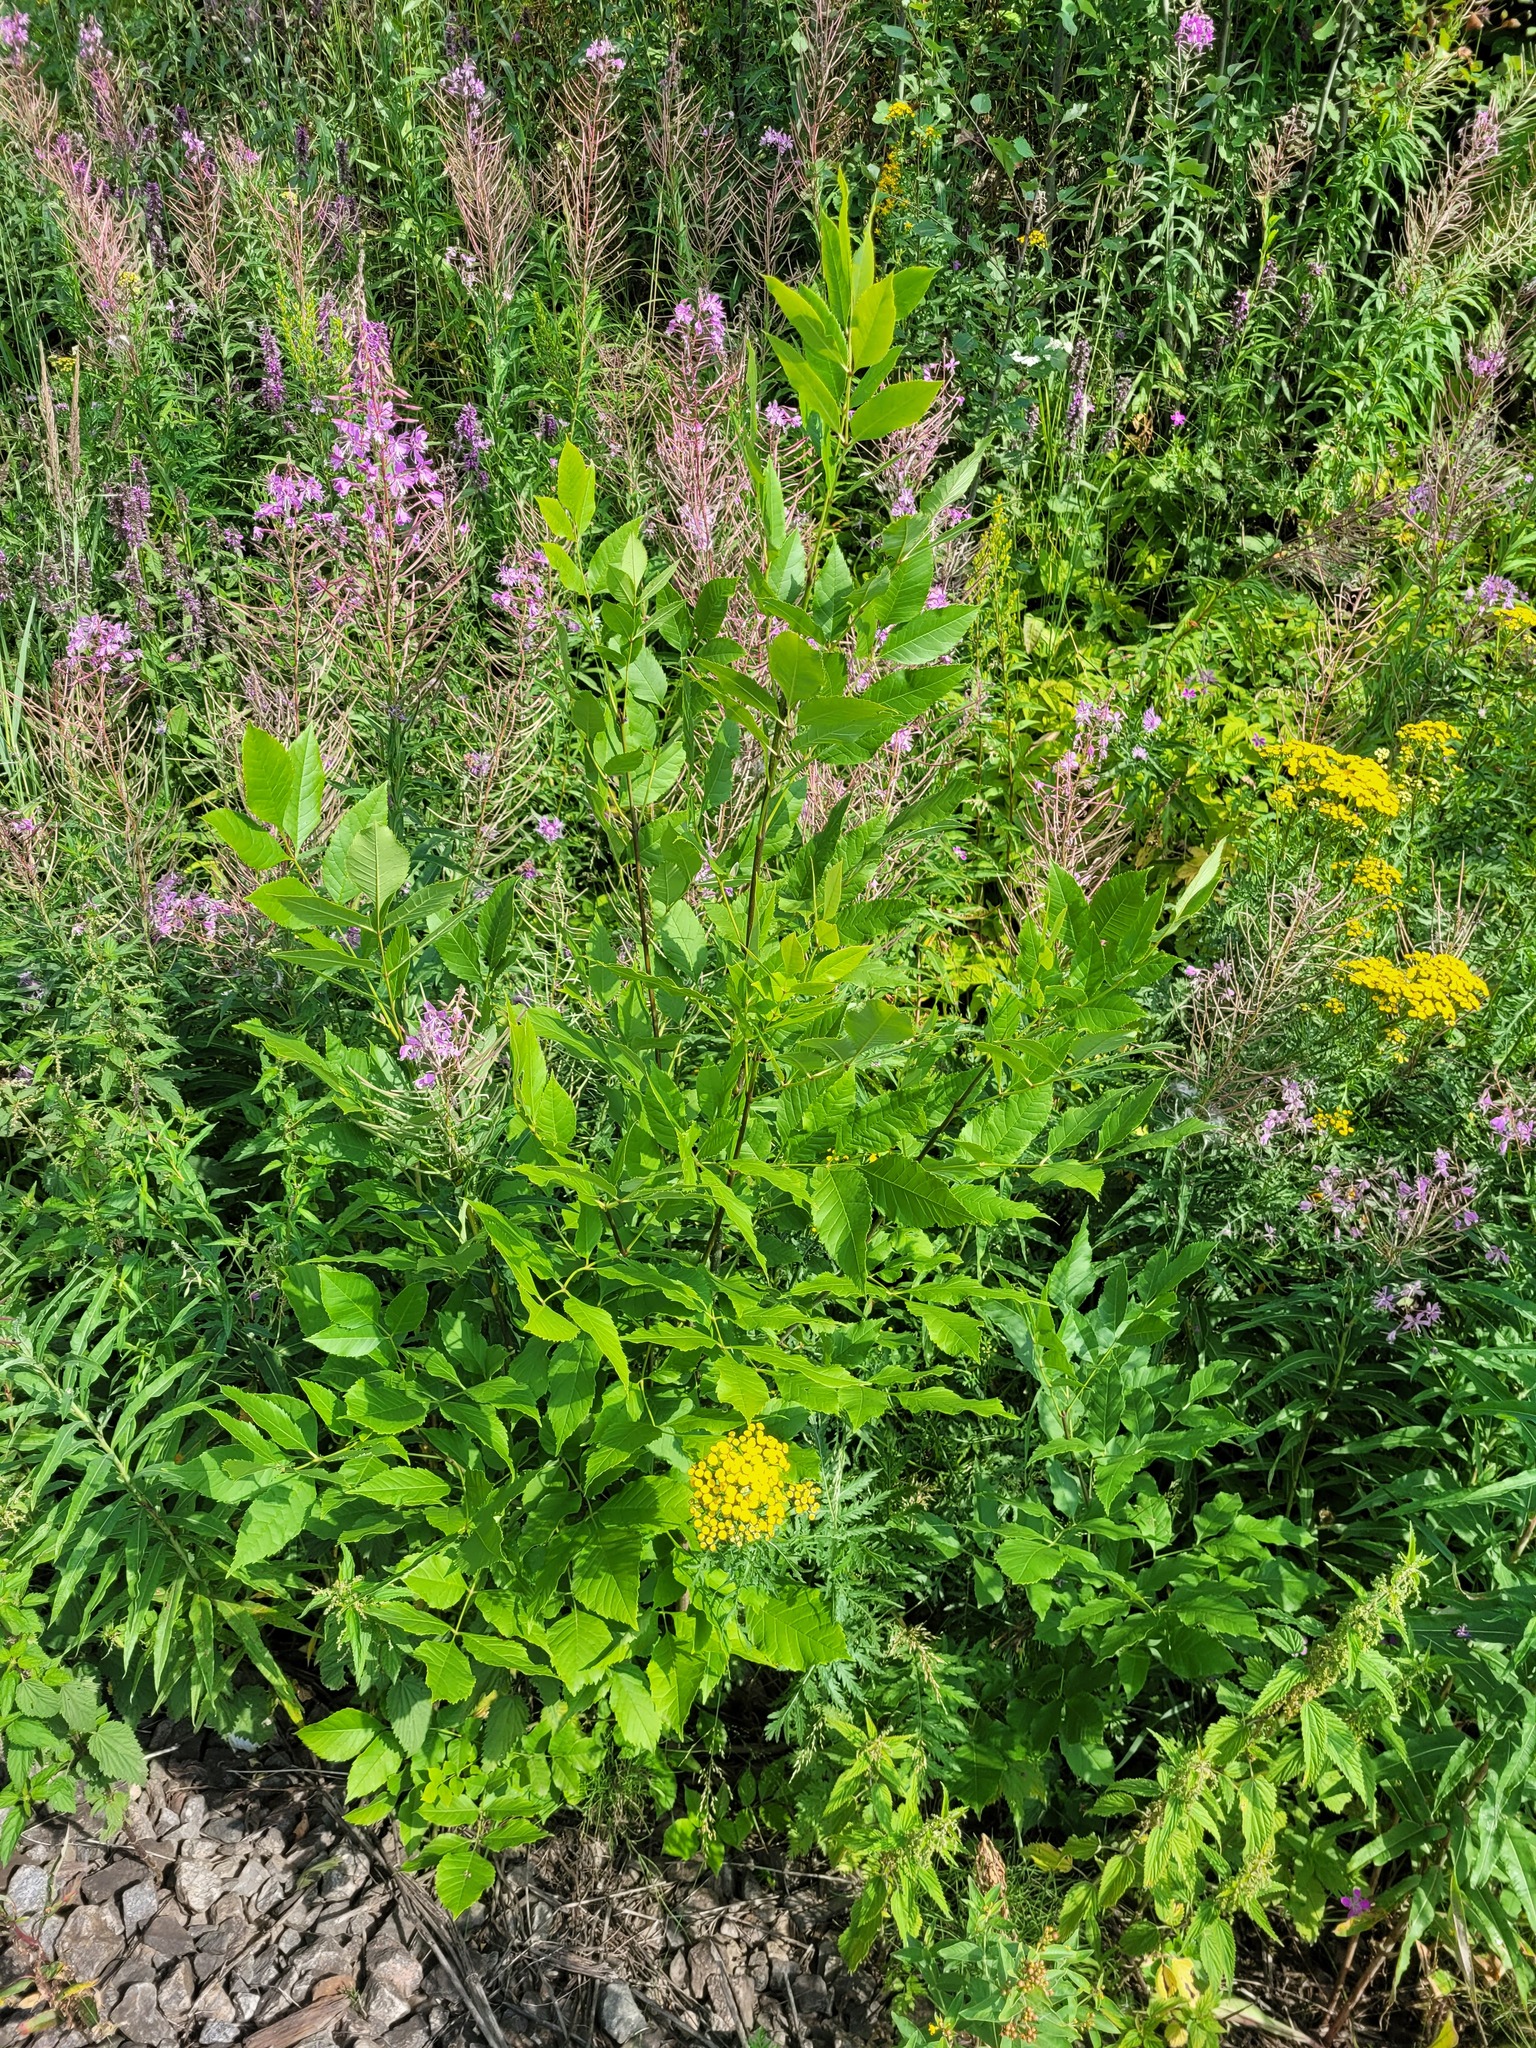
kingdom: Plantae
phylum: Tracheophyta
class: Magnoliopsida
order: Lamiales
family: Oleaceae
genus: Fraxinus
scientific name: Fraxinus pennsylvanica
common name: Green ash
